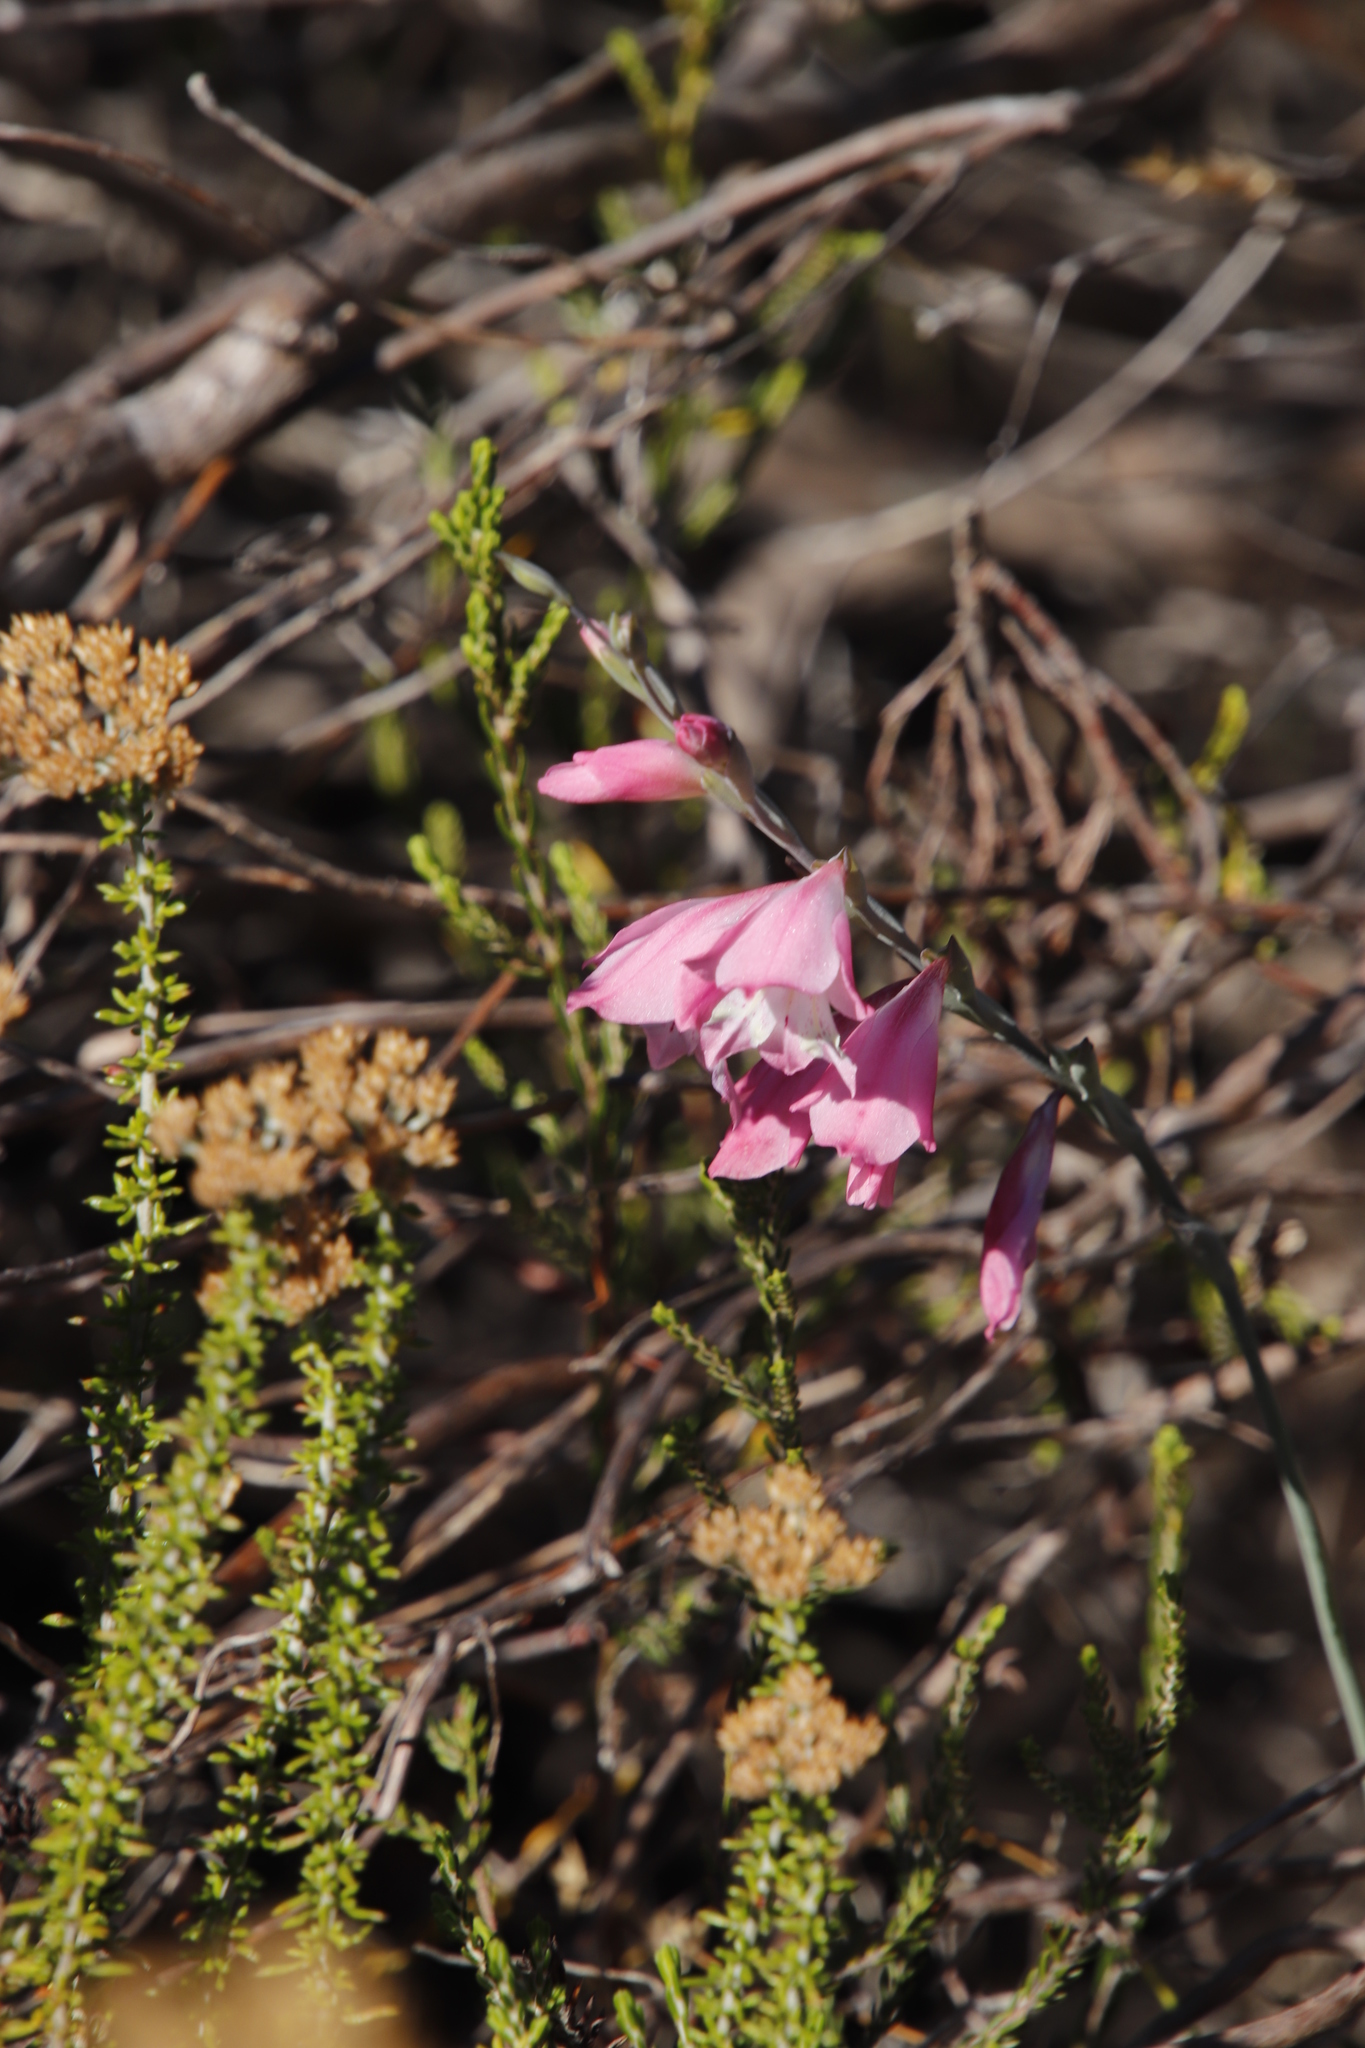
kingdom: Plantae
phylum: Tracheophyta
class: Liliopsida
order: Asparagales
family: Iridaceae
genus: Gladiolus
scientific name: Gladiolus brevifolius
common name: March pypie
